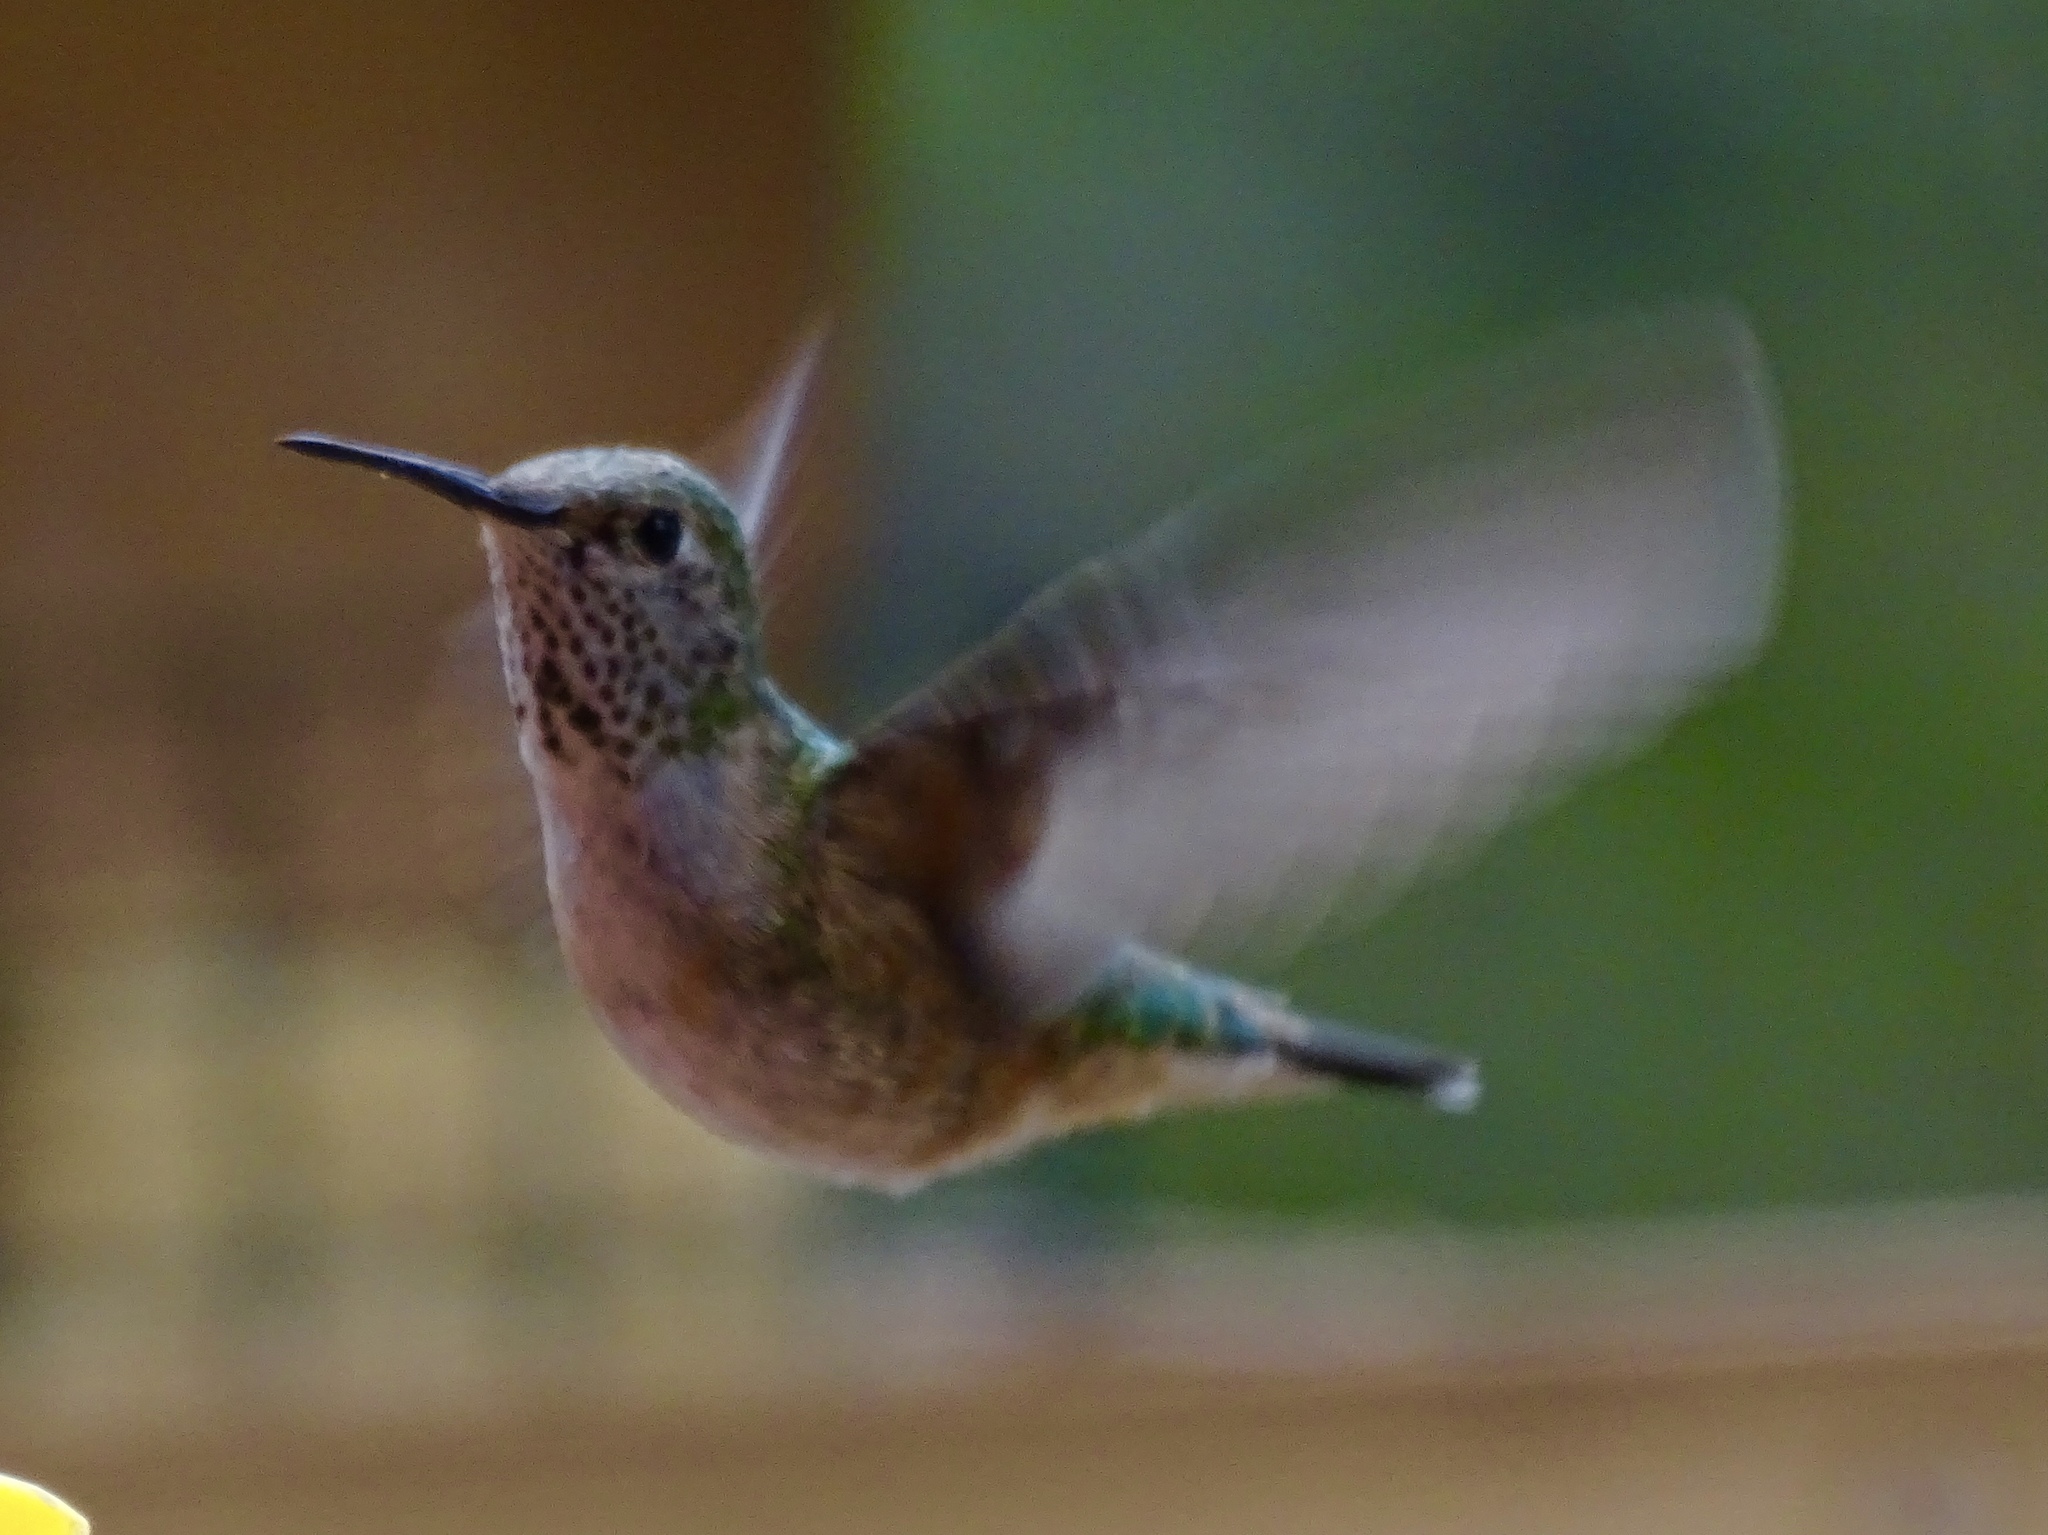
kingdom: Animalia
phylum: Chordata
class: Aves
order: Apodiformes
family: Trochilidae
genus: Selasphorus
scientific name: Selasphorus platycercus
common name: Broad-tailed hummingbird
